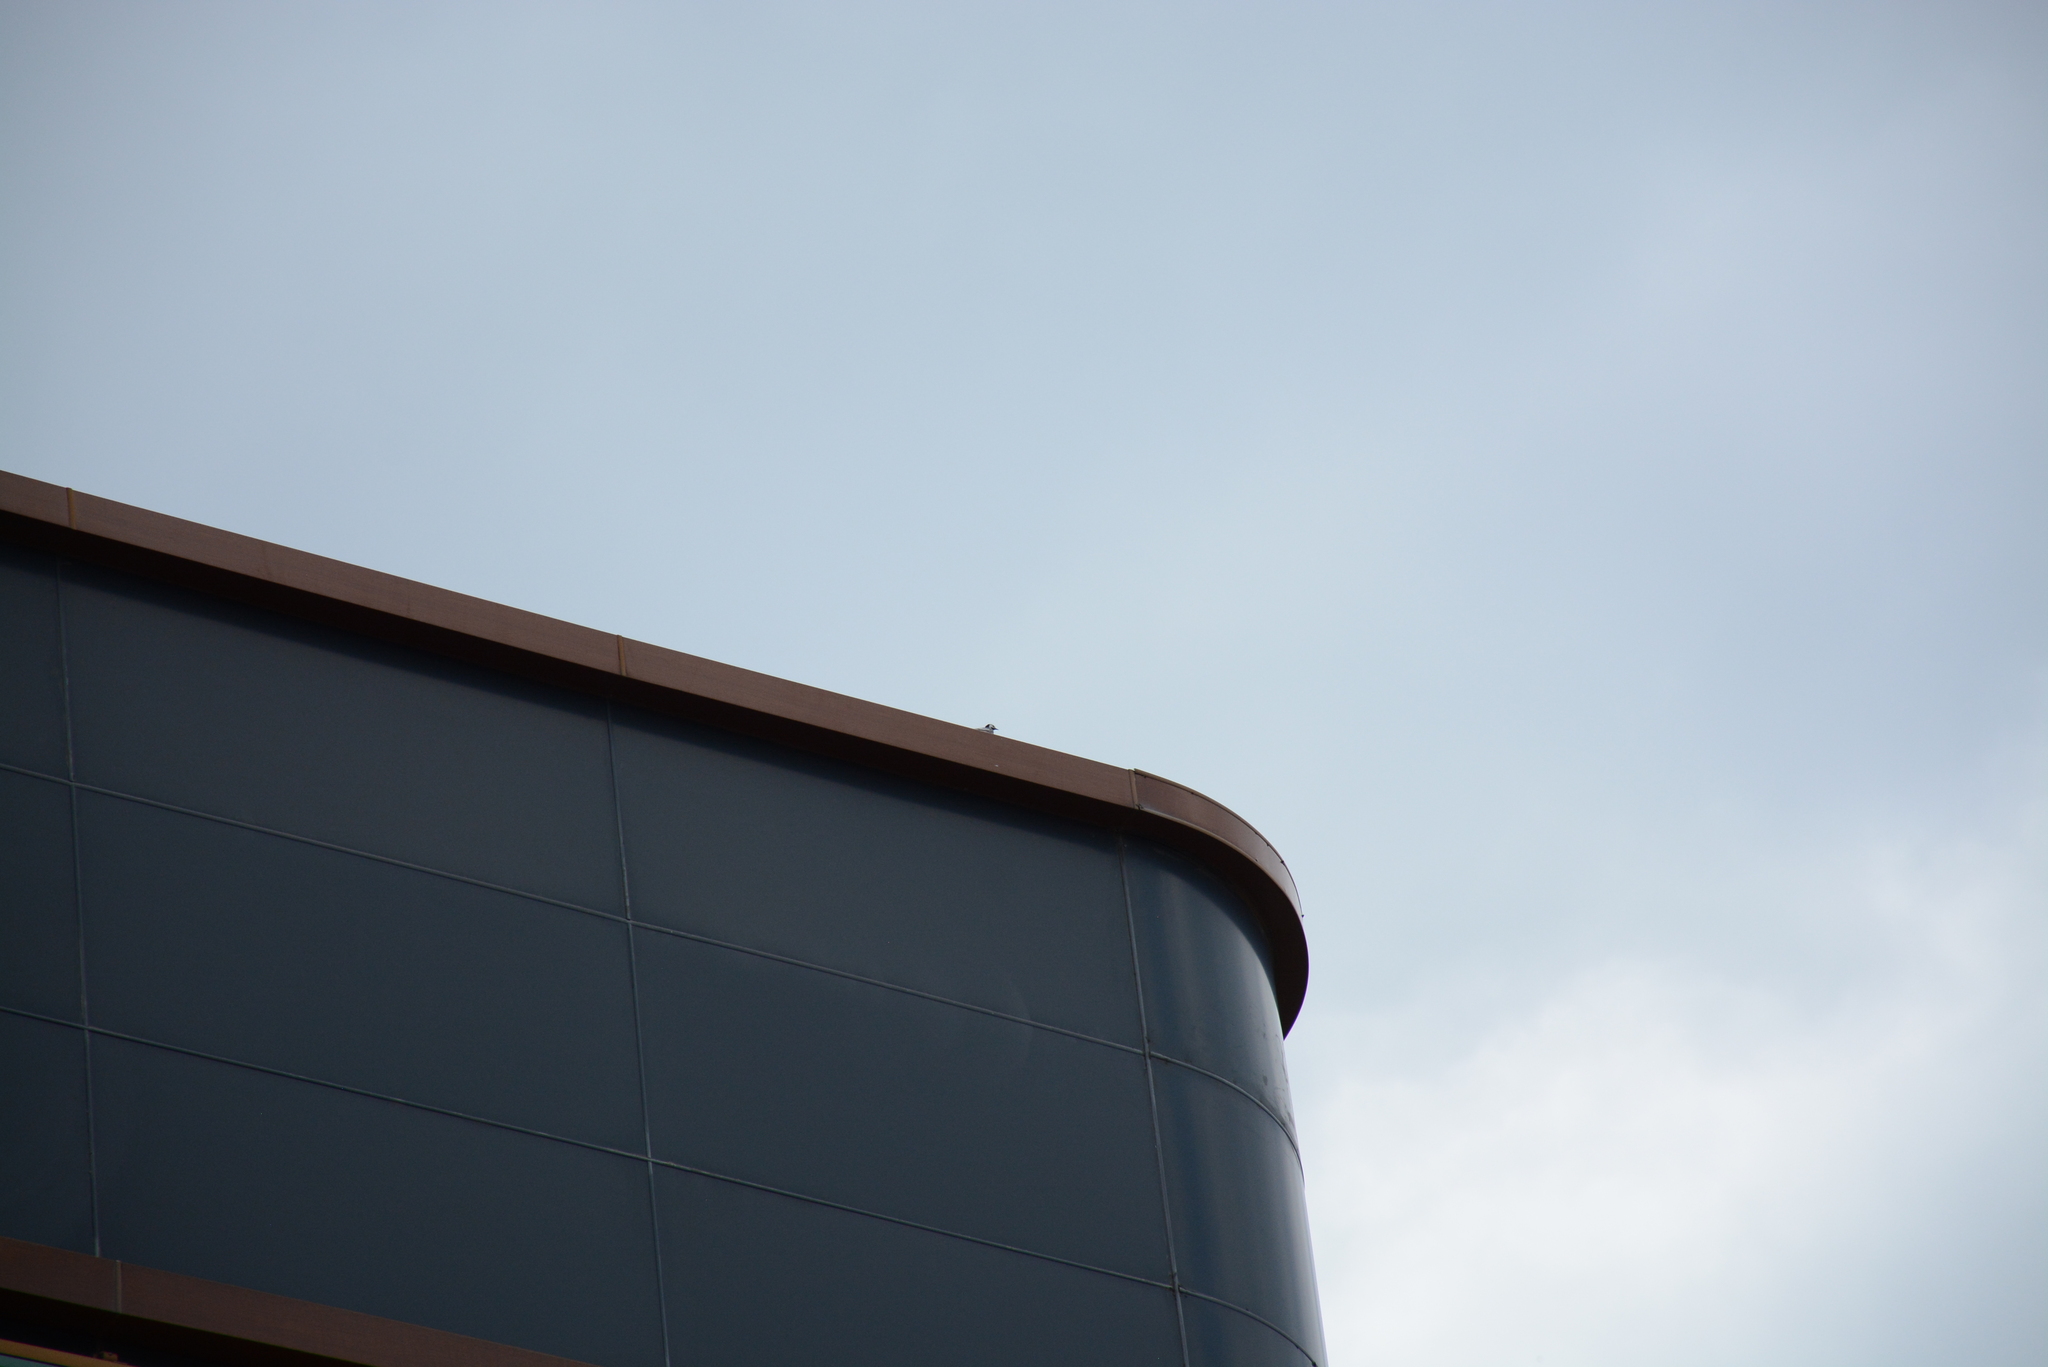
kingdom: Animalia
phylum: Chordata
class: Aves
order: Passeriformes
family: Motacillidae
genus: Motacilla
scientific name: Motacilla alba
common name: White wagtail
